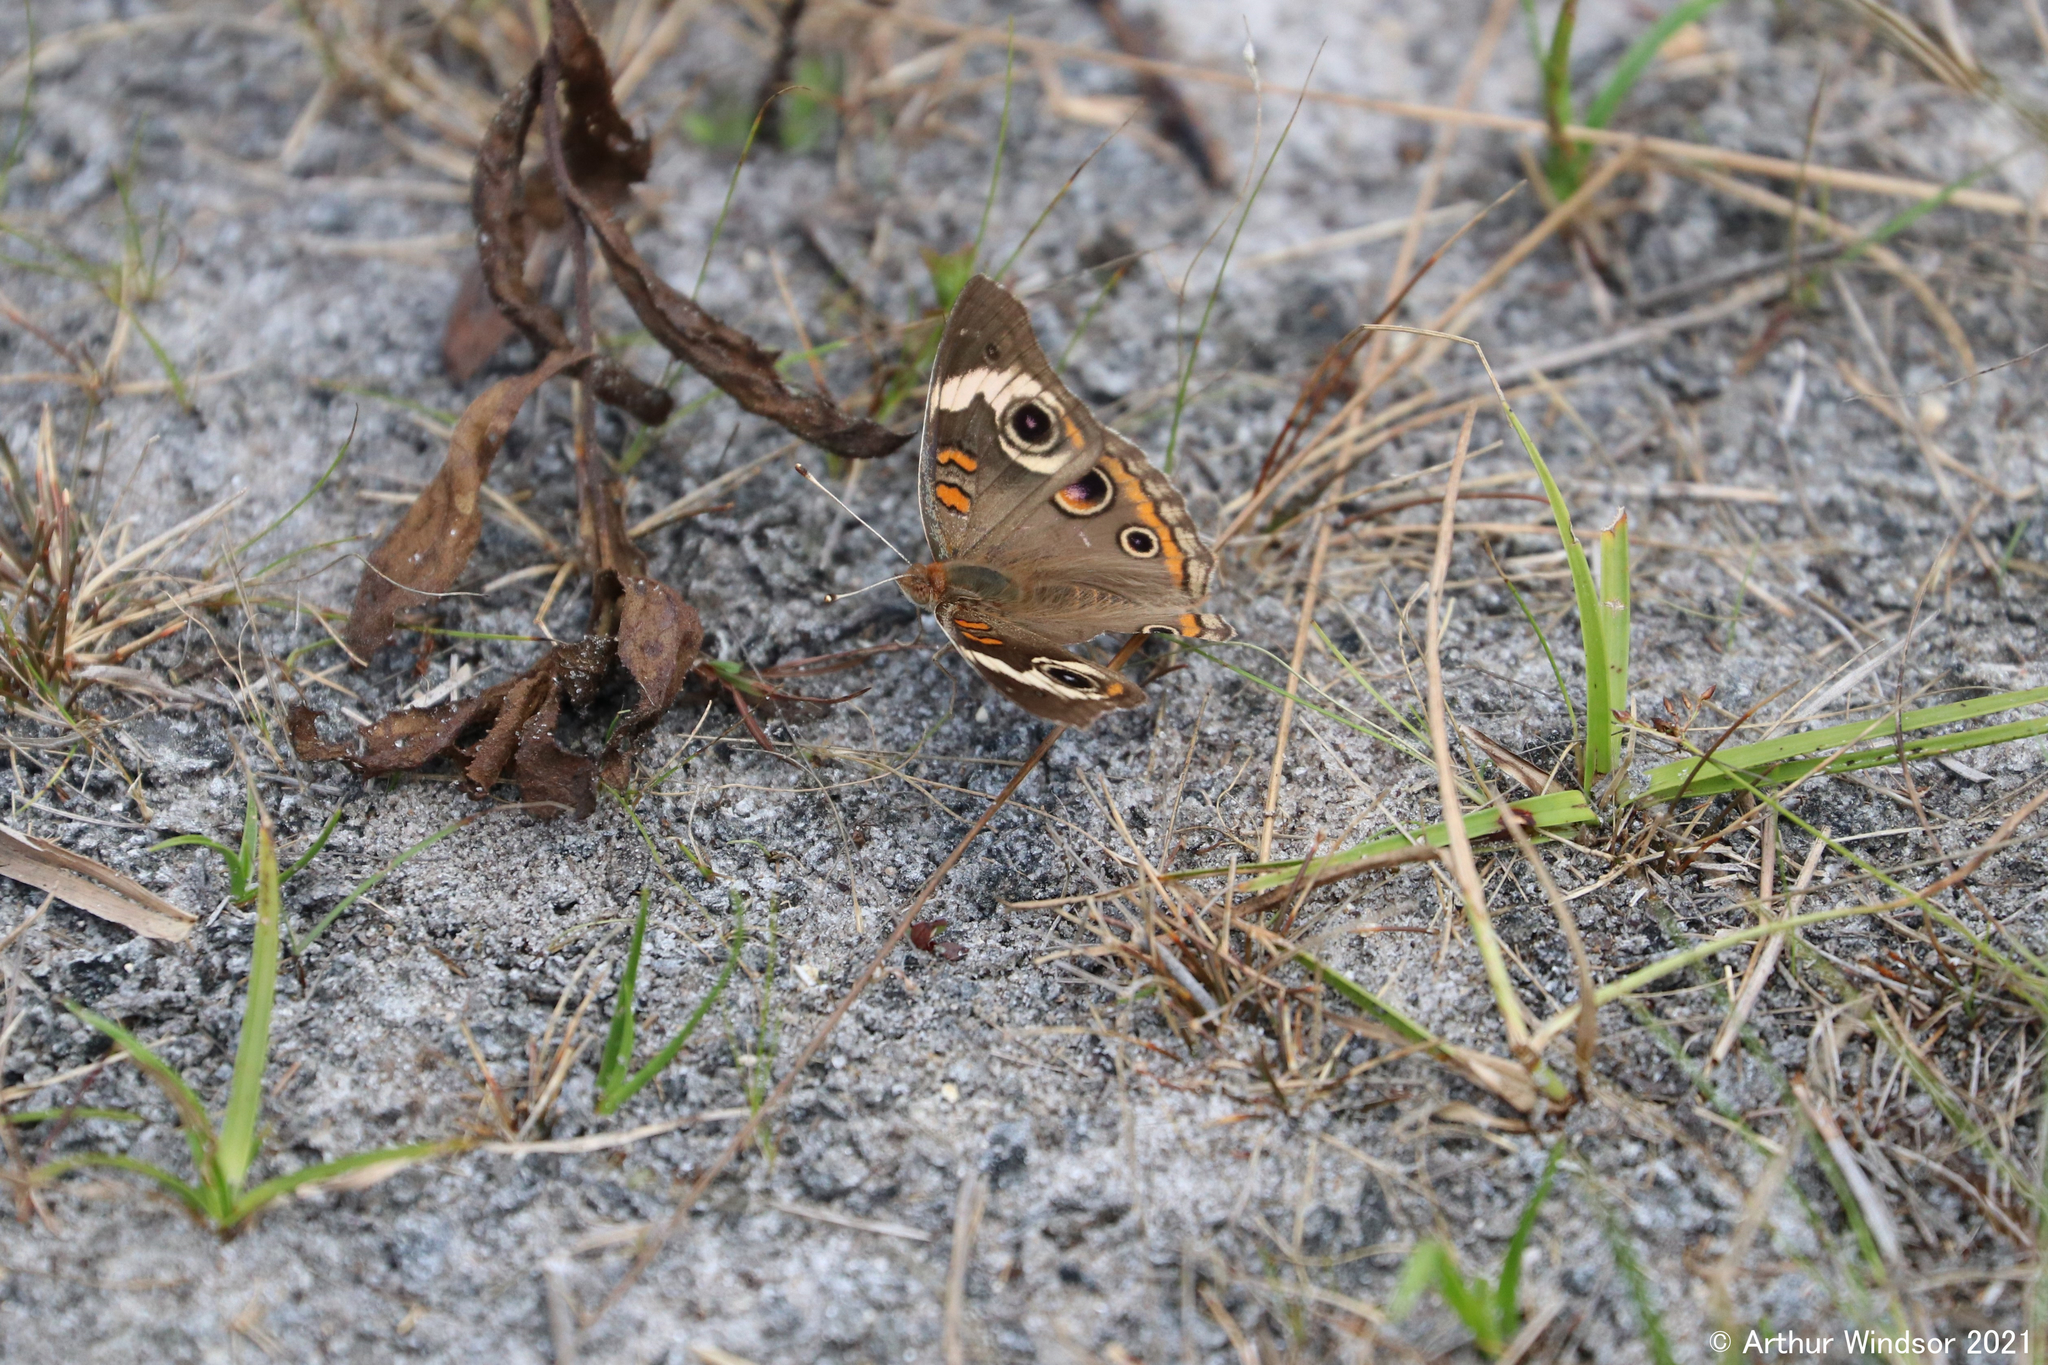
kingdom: Animalia
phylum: Arthropoda
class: Insecta
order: Lepidoptera
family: Nymphalidae
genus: Junonia
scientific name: Junonia coenia
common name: Common buckeye
